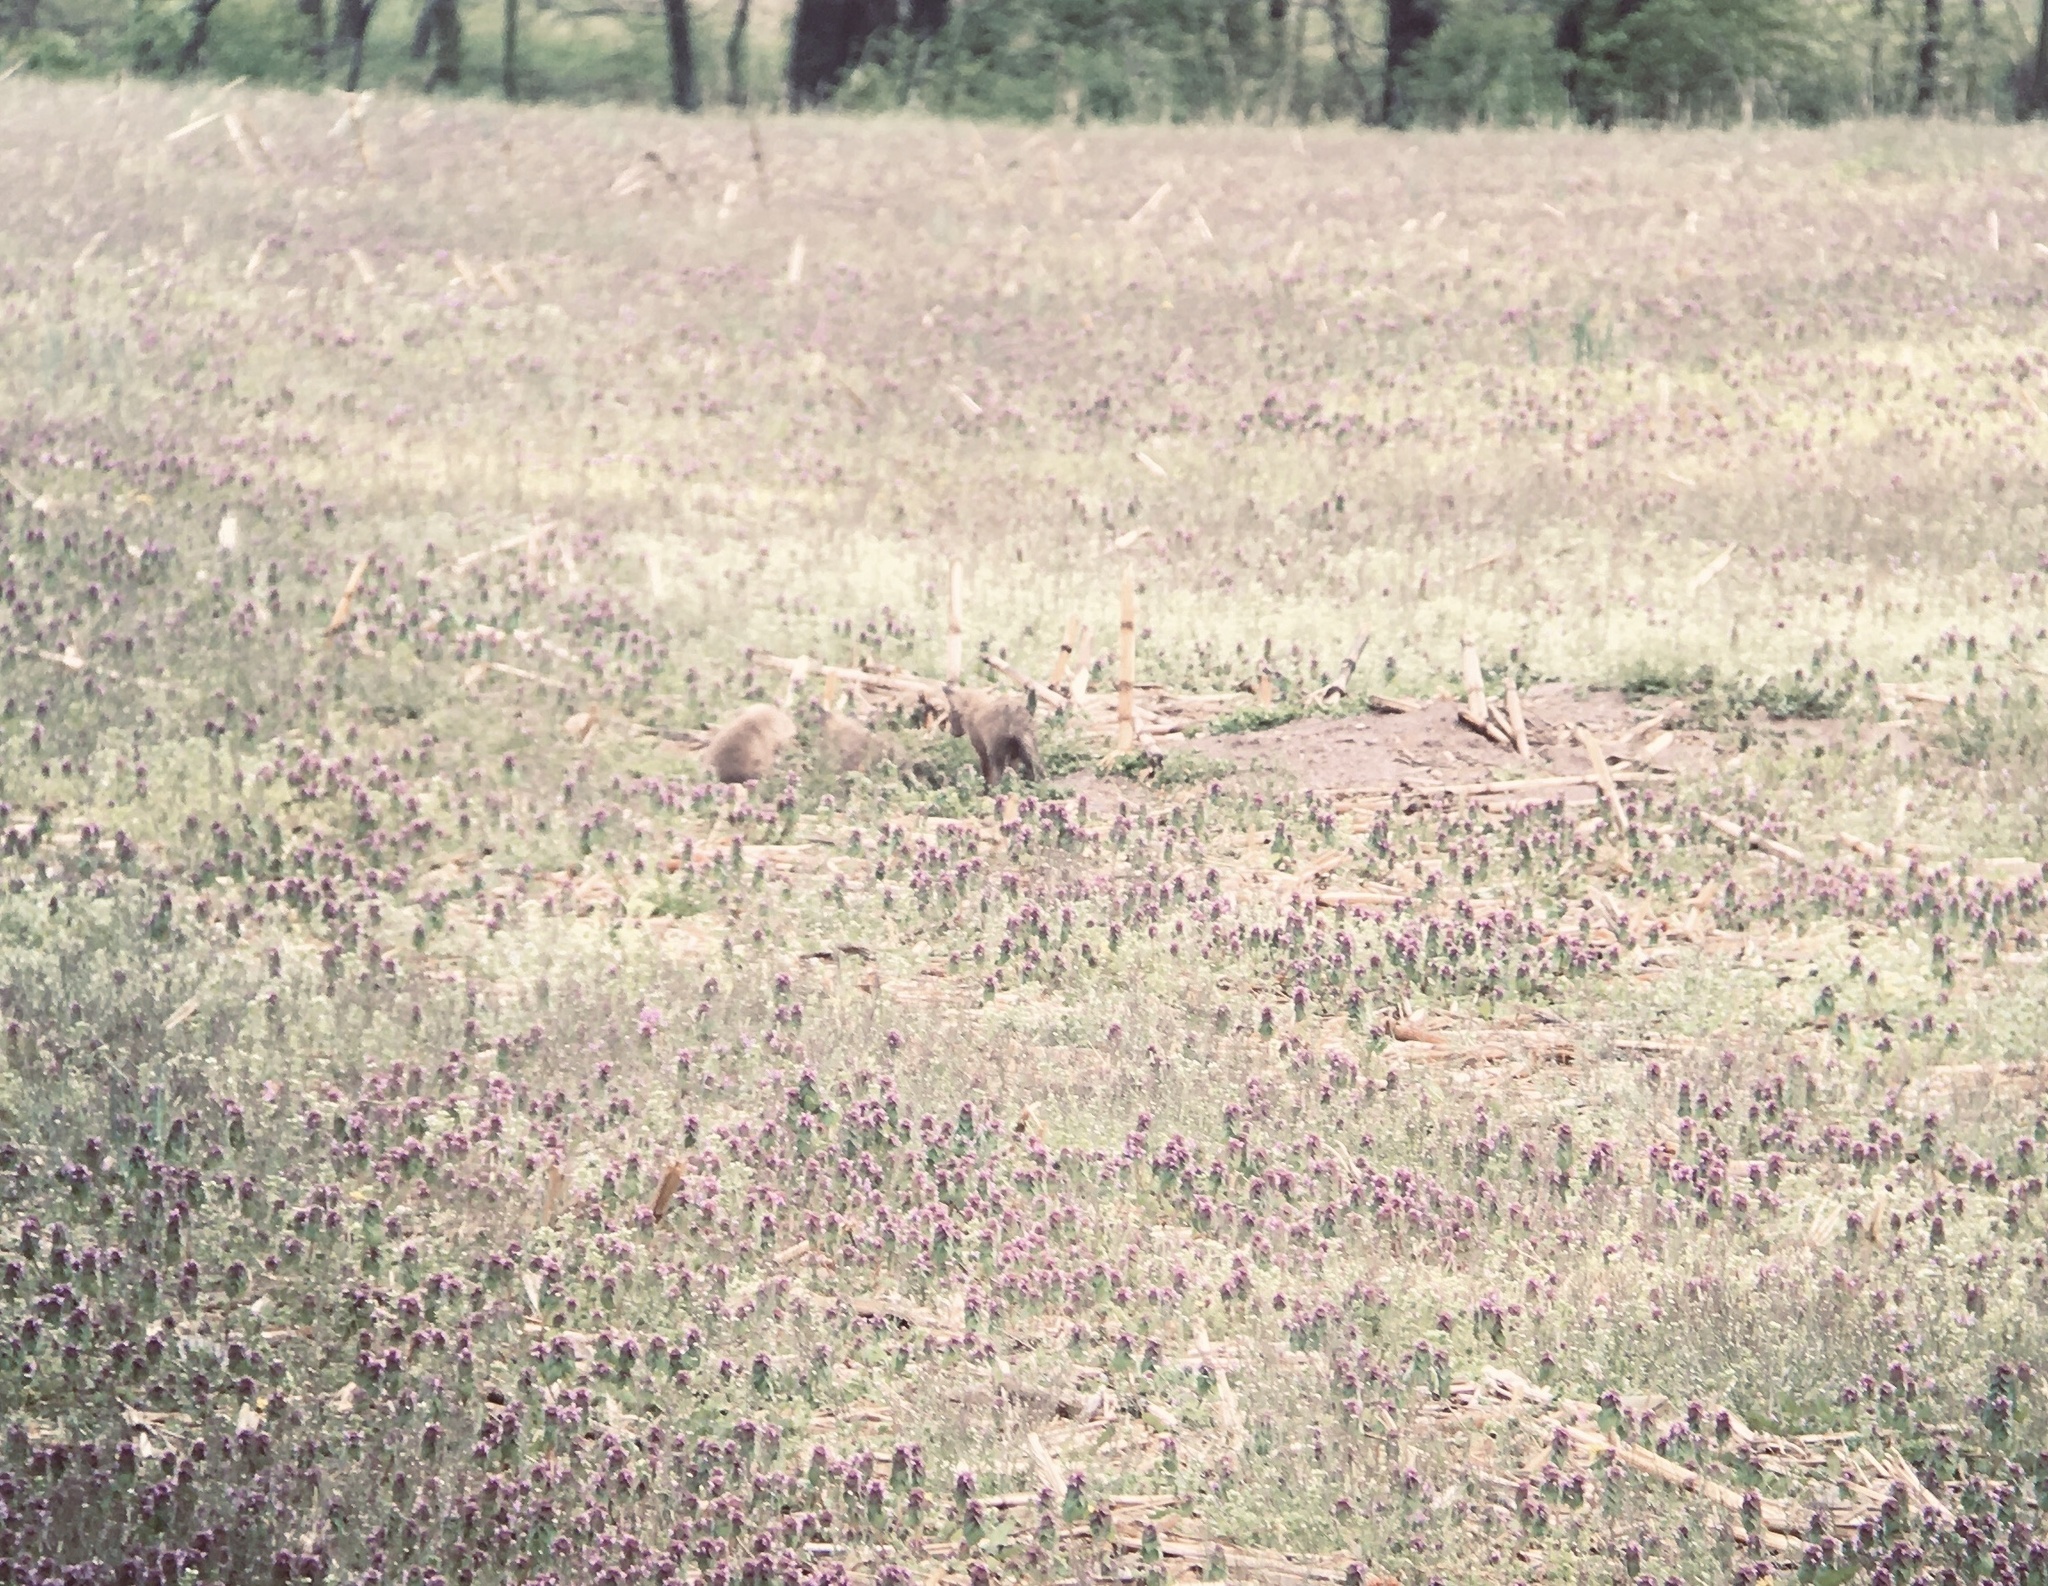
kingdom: Animalia
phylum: Chordata
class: Mammalia
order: Carnivora
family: Canidae
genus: Vulpes
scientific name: Vulpes vulpes
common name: Red fox
